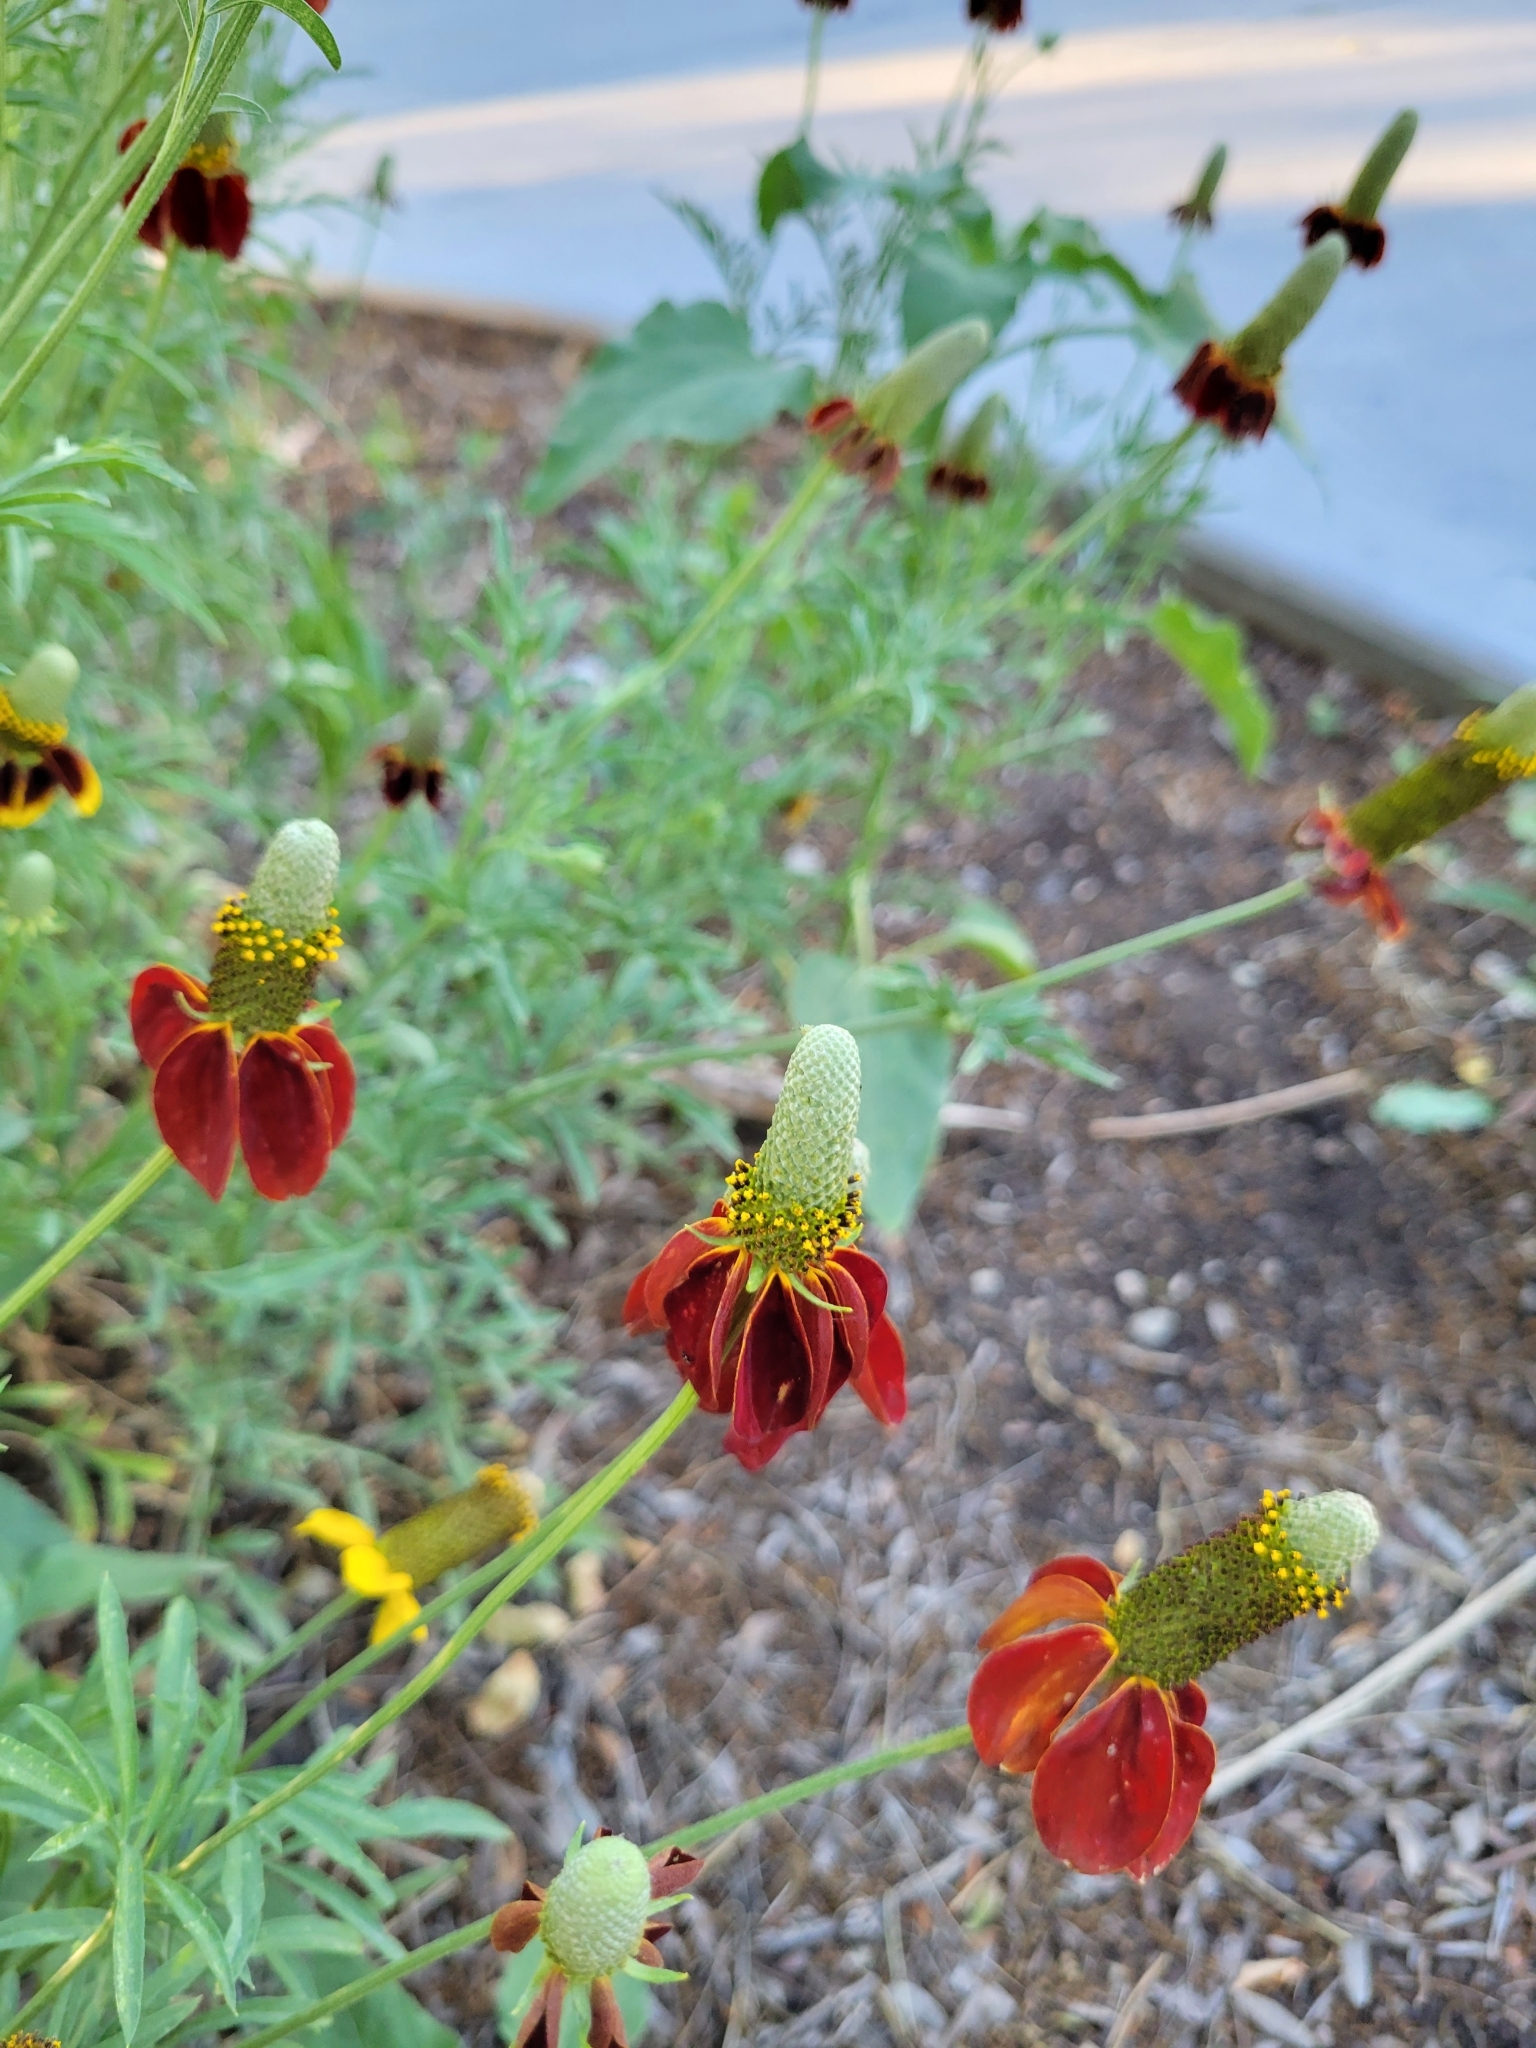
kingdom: Plantae
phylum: Tracheophyta
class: Magnoliopsida
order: Asterales
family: Asteraceae
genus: Ratibida
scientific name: Ratibida columnifera
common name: Prairie coneflower
